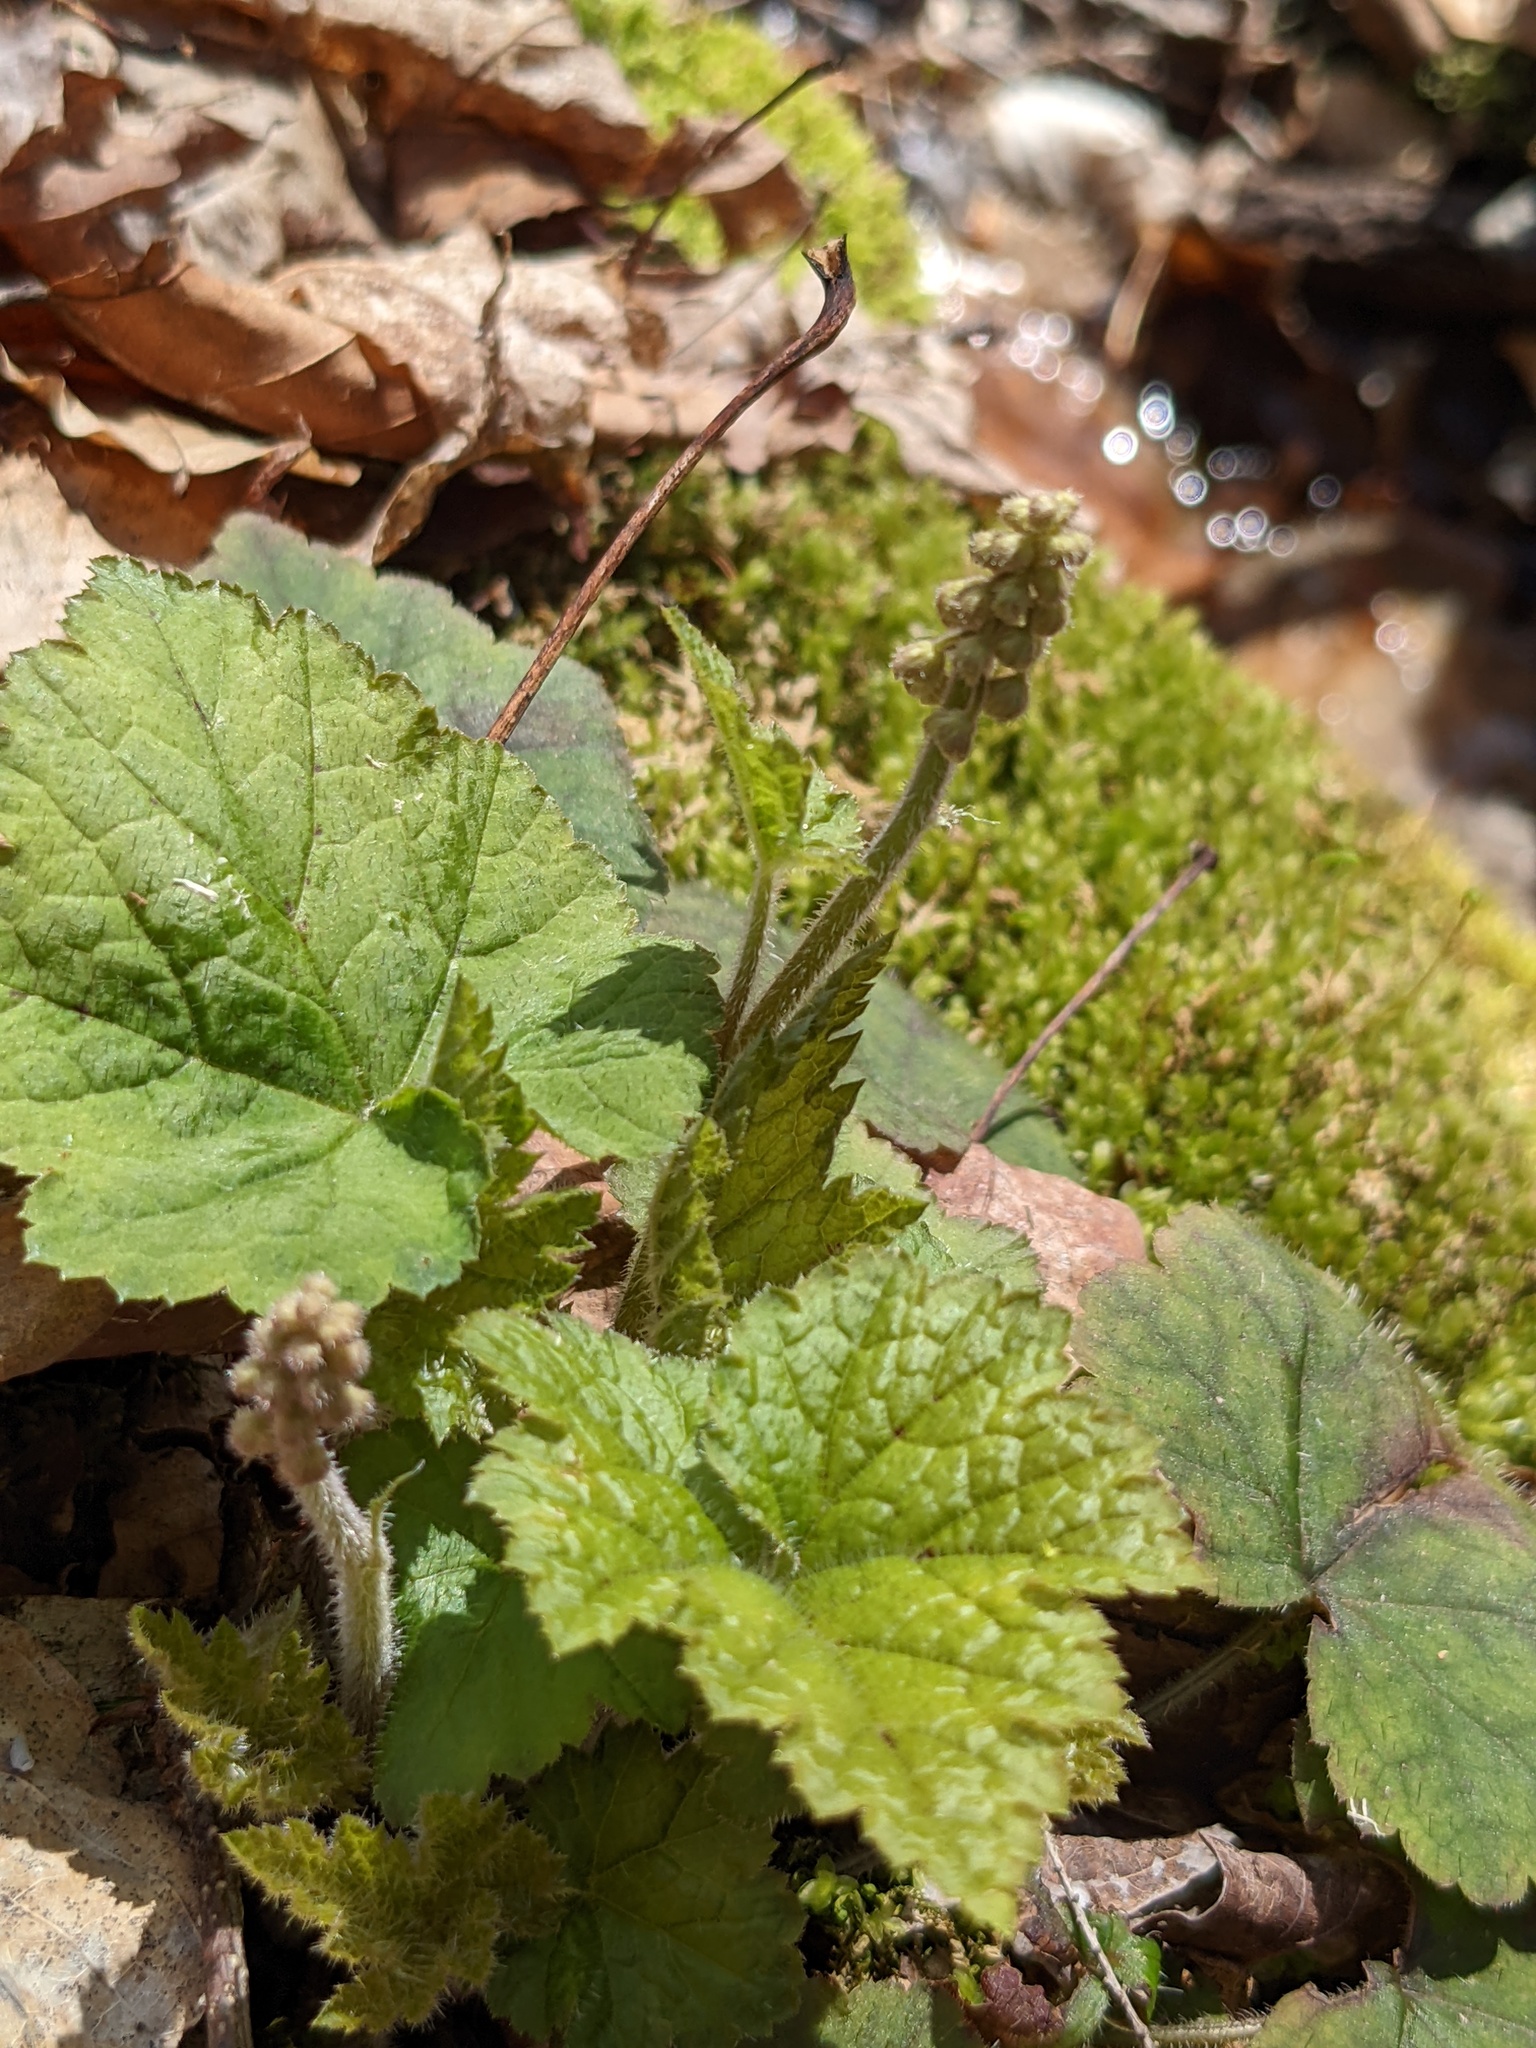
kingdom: Plantae
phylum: Tracheophyta
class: Magnoliopsida
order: Saxifragales
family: Saxifragaceae
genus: Tiarella
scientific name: Tiarella stolonifera
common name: Stoloniferous foamflower
